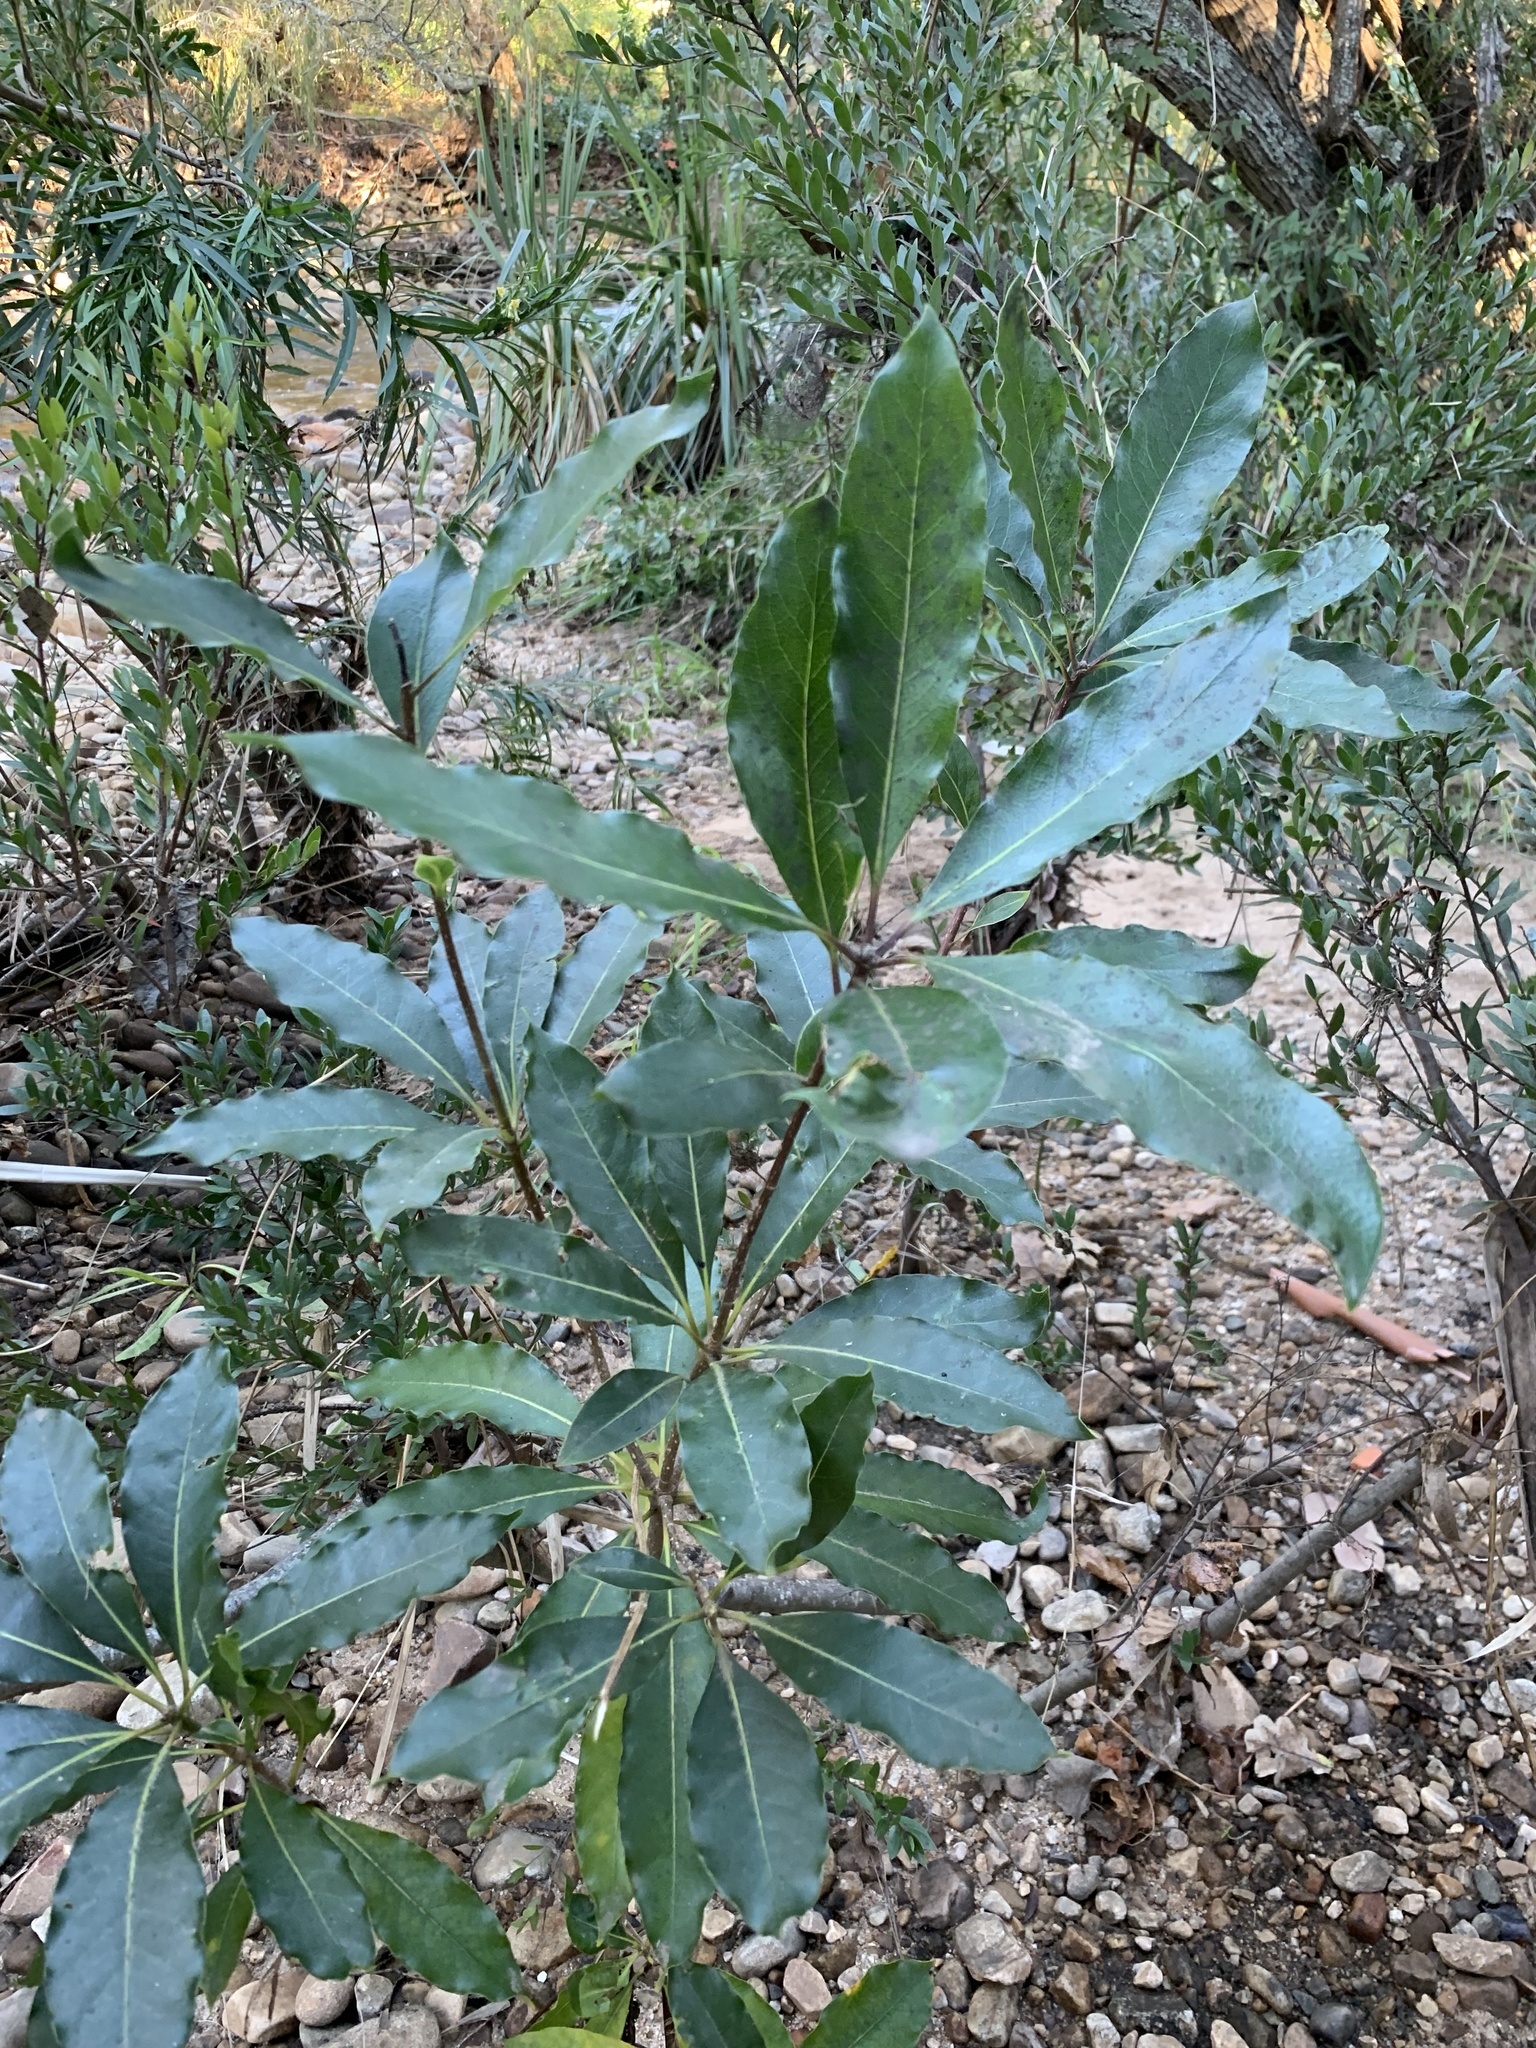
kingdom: Plantae
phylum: Tracheophyta
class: Magnoliopsida
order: Apiales
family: Pittosporaceae
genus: Pittosporum
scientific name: Pittosporum undulatum
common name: Australian cheesewood
